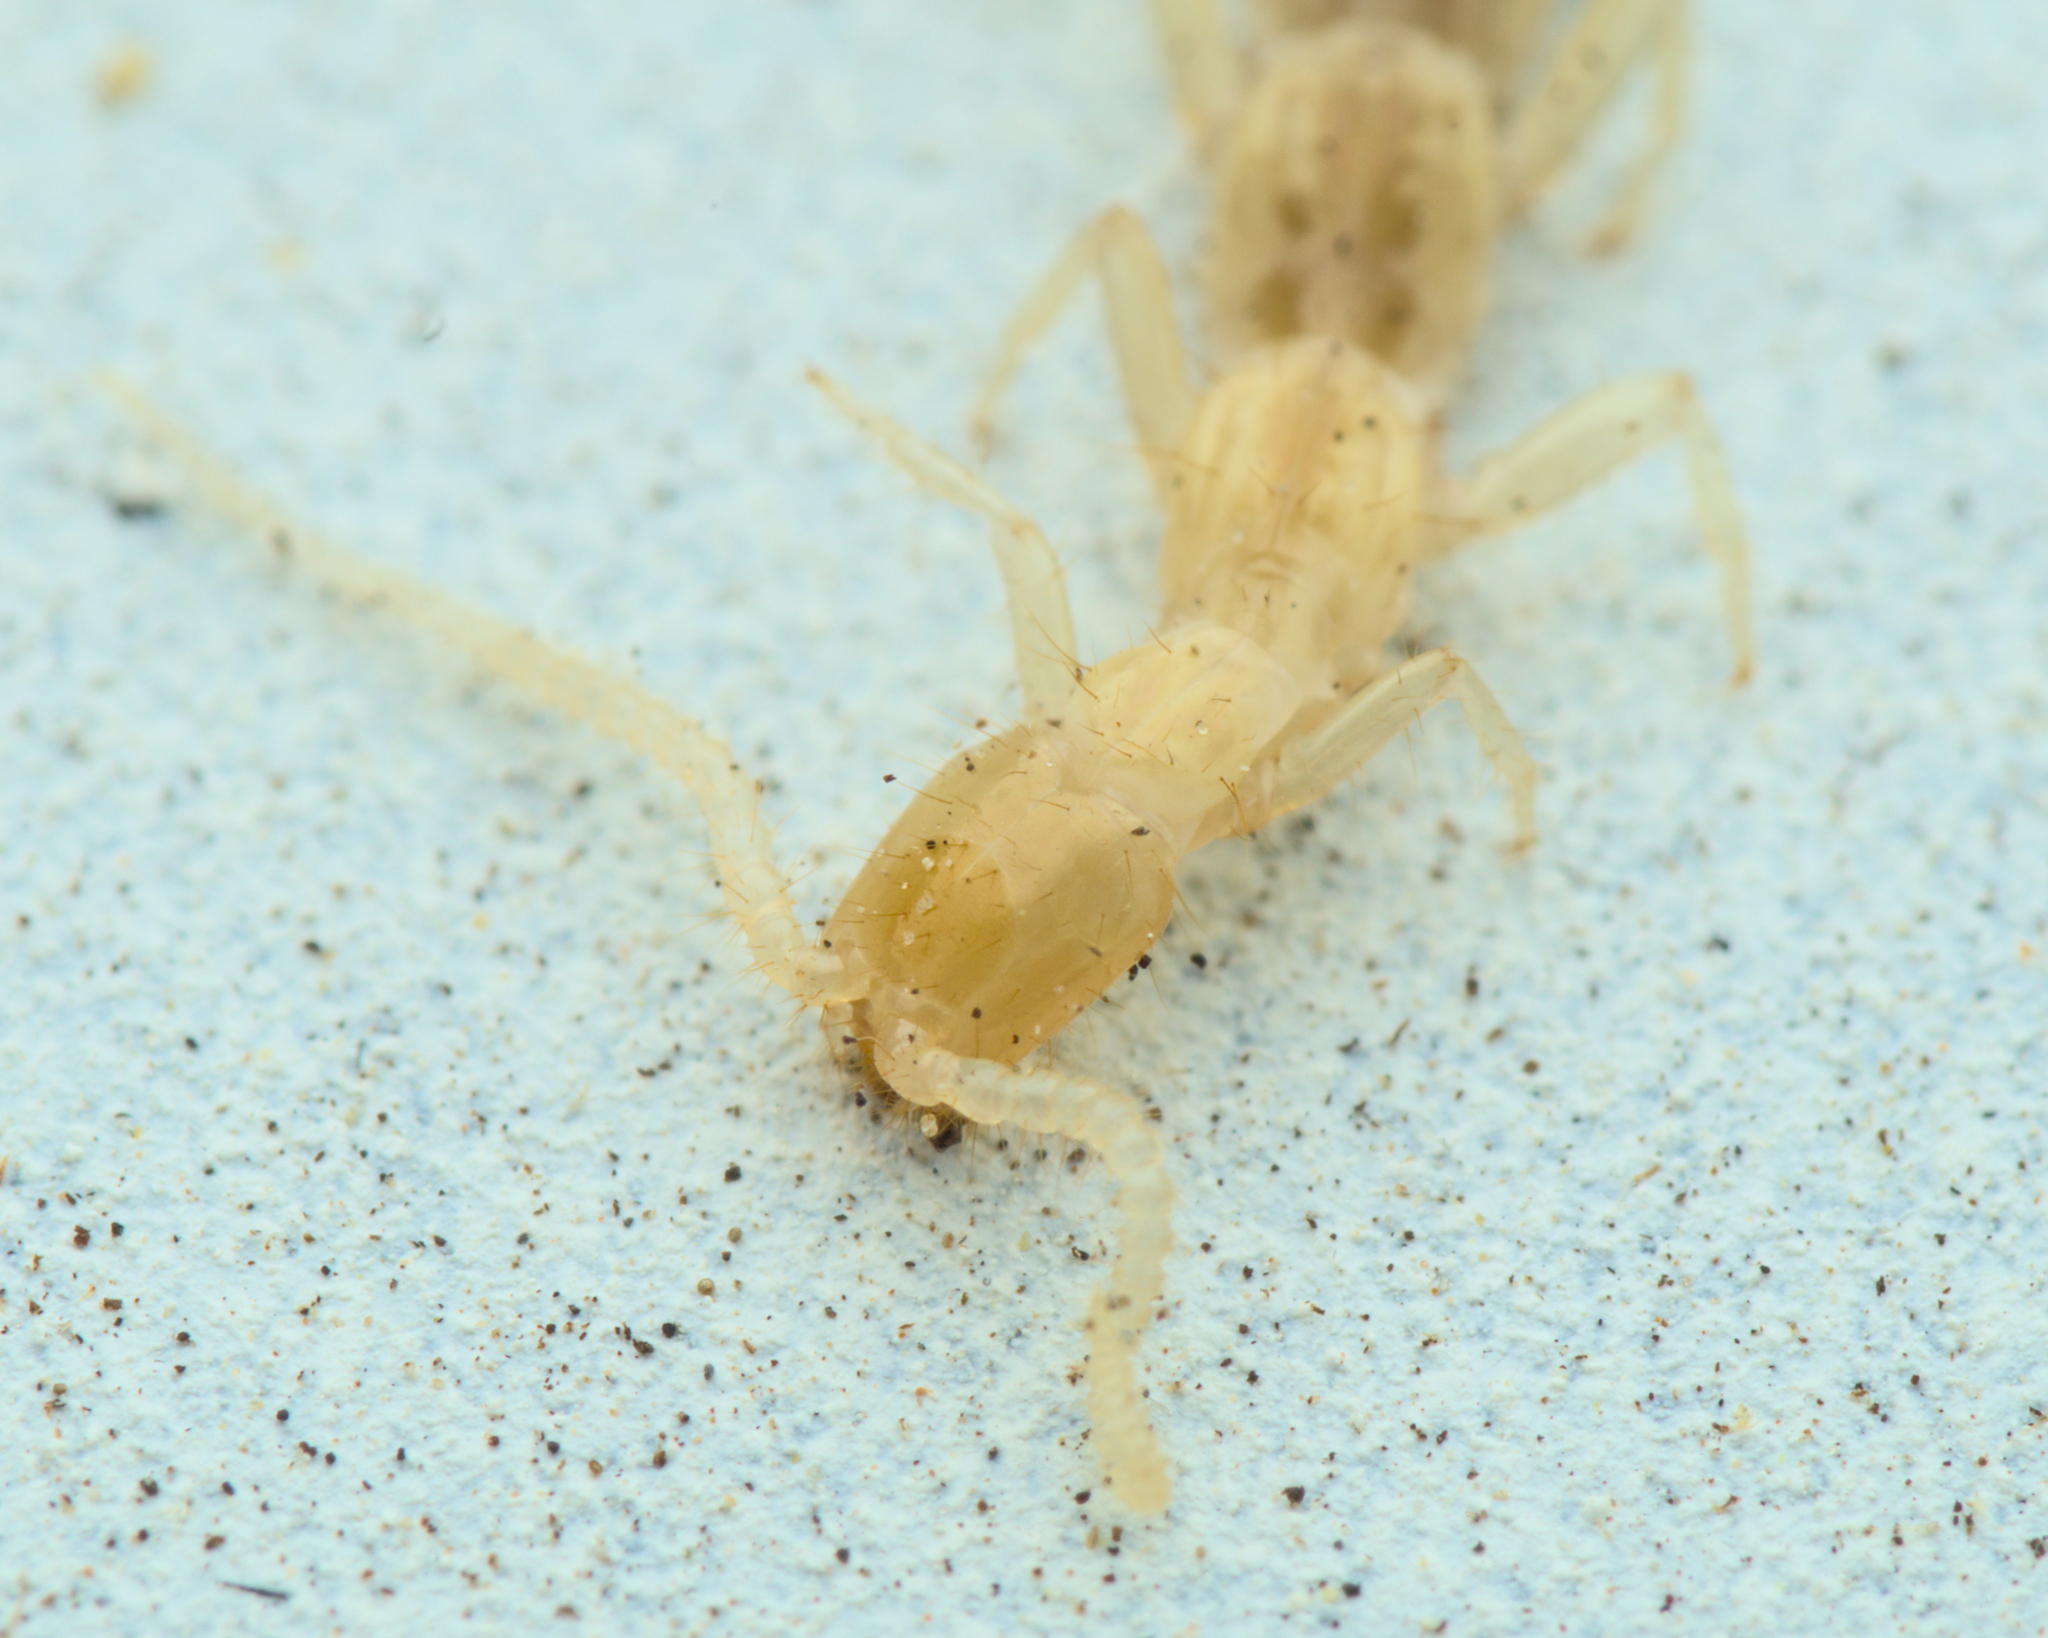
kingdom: Animalia
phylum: Arthropoda
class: Diplura
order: Diplura
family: Japygidae
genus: Dipljapyx
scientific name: Dipljapyx humberti
